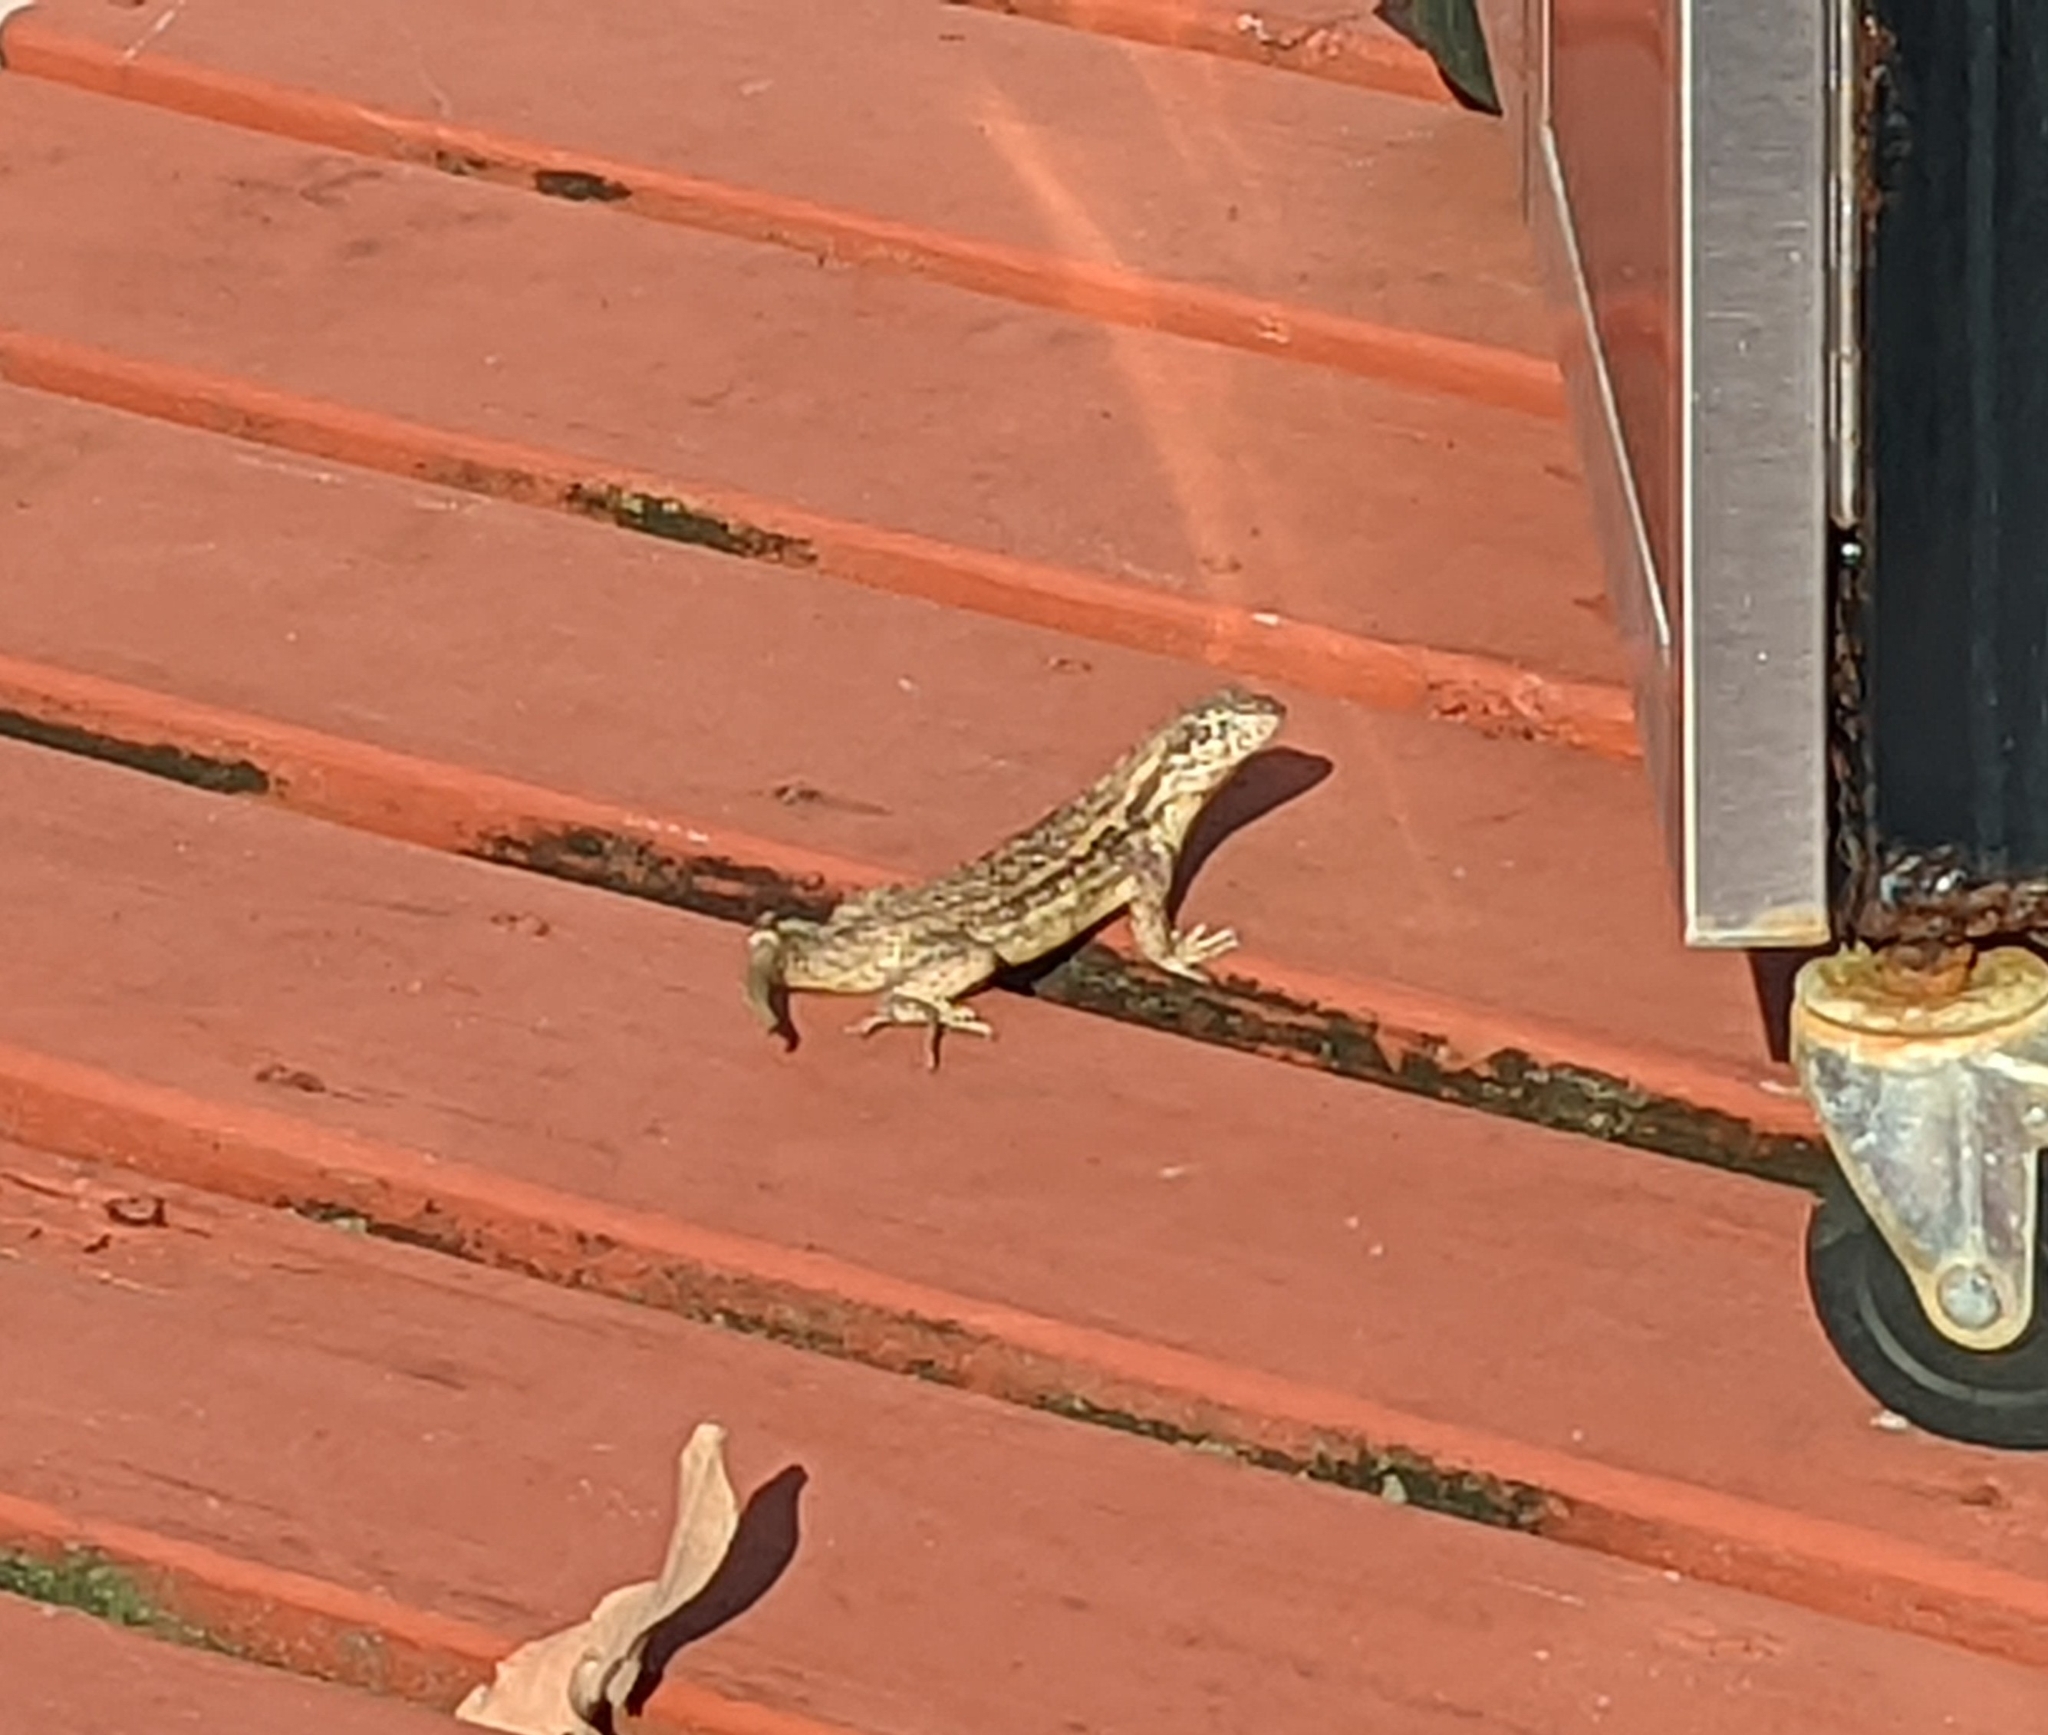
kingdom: Animalia
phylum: Chordata
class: Squamata
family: Leiocephalidae
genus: Leiocephalus
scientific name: Leiocephalus carinatus
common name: Northern curly-tailed lizard
